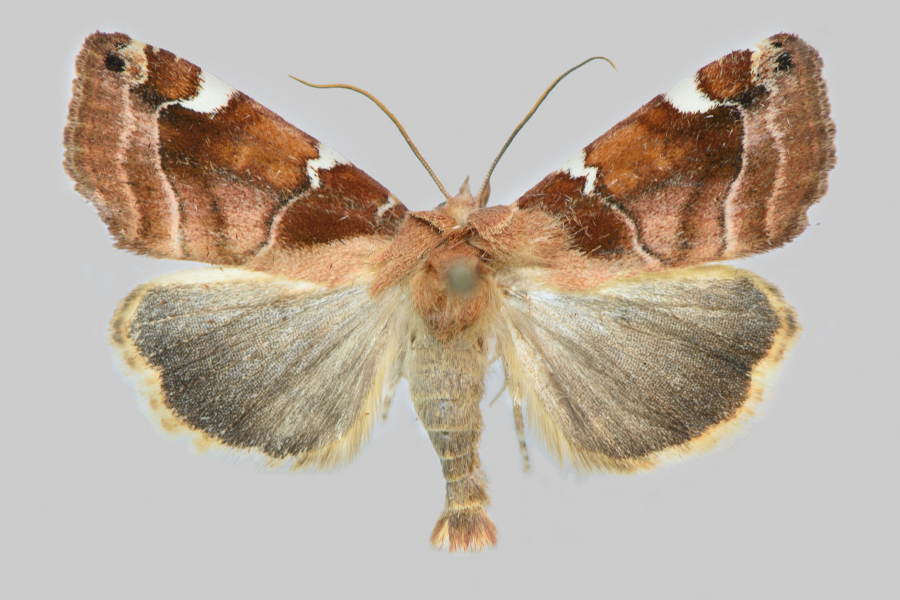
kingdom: Animalia
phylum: Arthropoda
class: Insecta
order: Lepidoptera
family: Noctuidae
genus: Cosmia
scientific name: Cosmia diffinis
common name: White-spotted pinion
